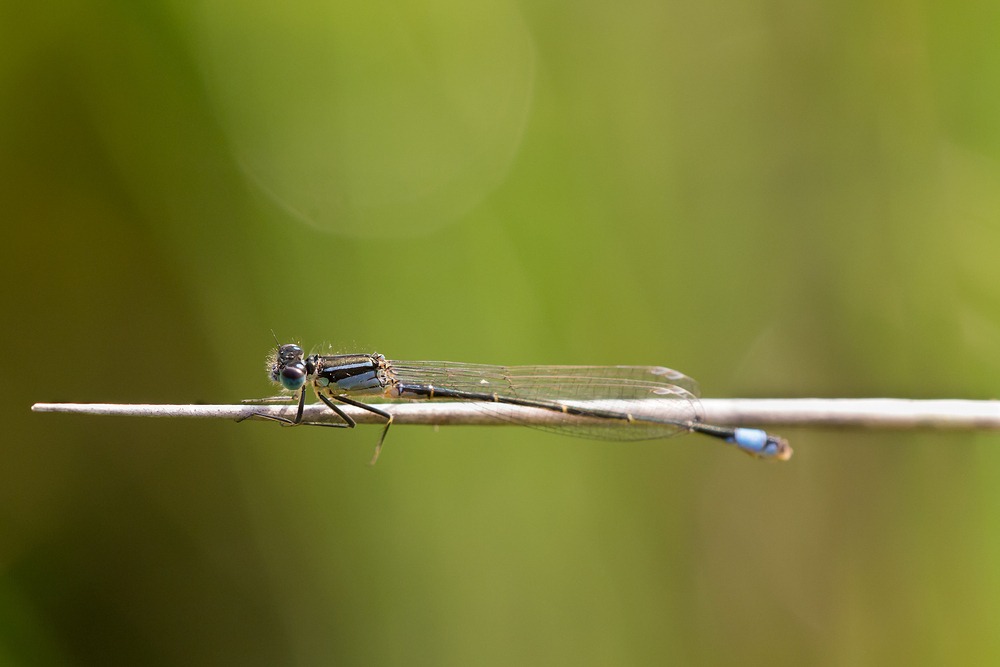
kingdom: Animalia
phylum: Arthropoda
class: Insecta
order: Odonata
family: Coenagrionidae
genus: Ischnura
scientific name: Ischnura elegans
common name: Blue-tailed damselfly
